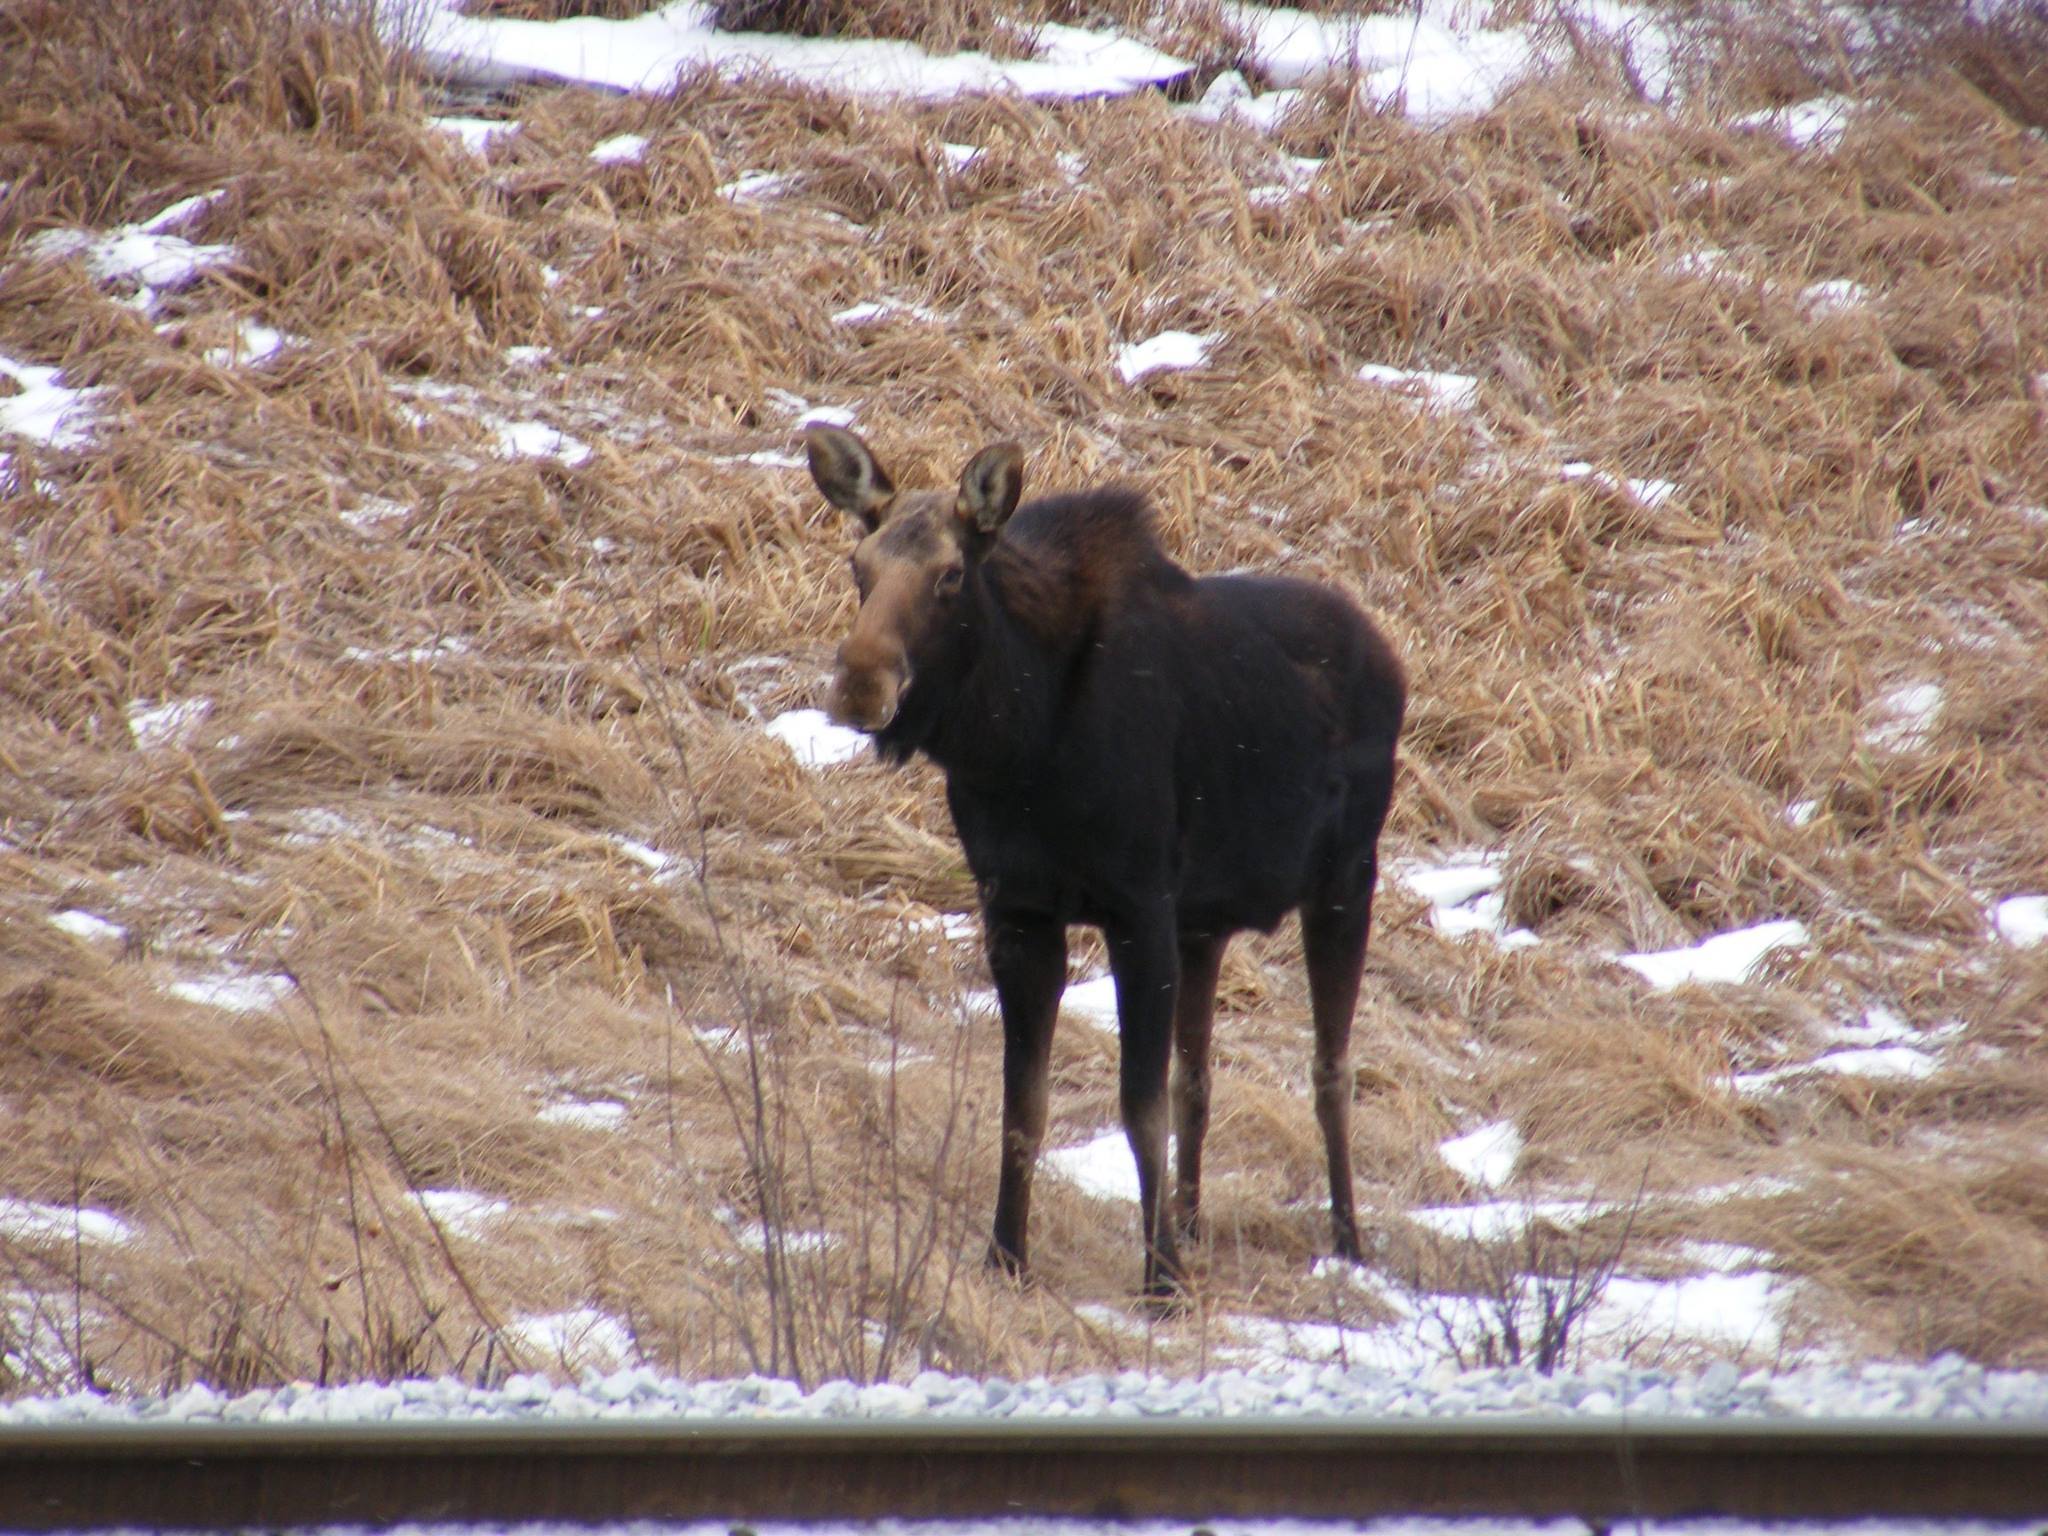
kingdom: Animalia
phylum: Chordata
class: Mammalia
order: Artiodactyla
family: Cervidae
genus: Alces
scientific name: Alces alces
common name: Moose
